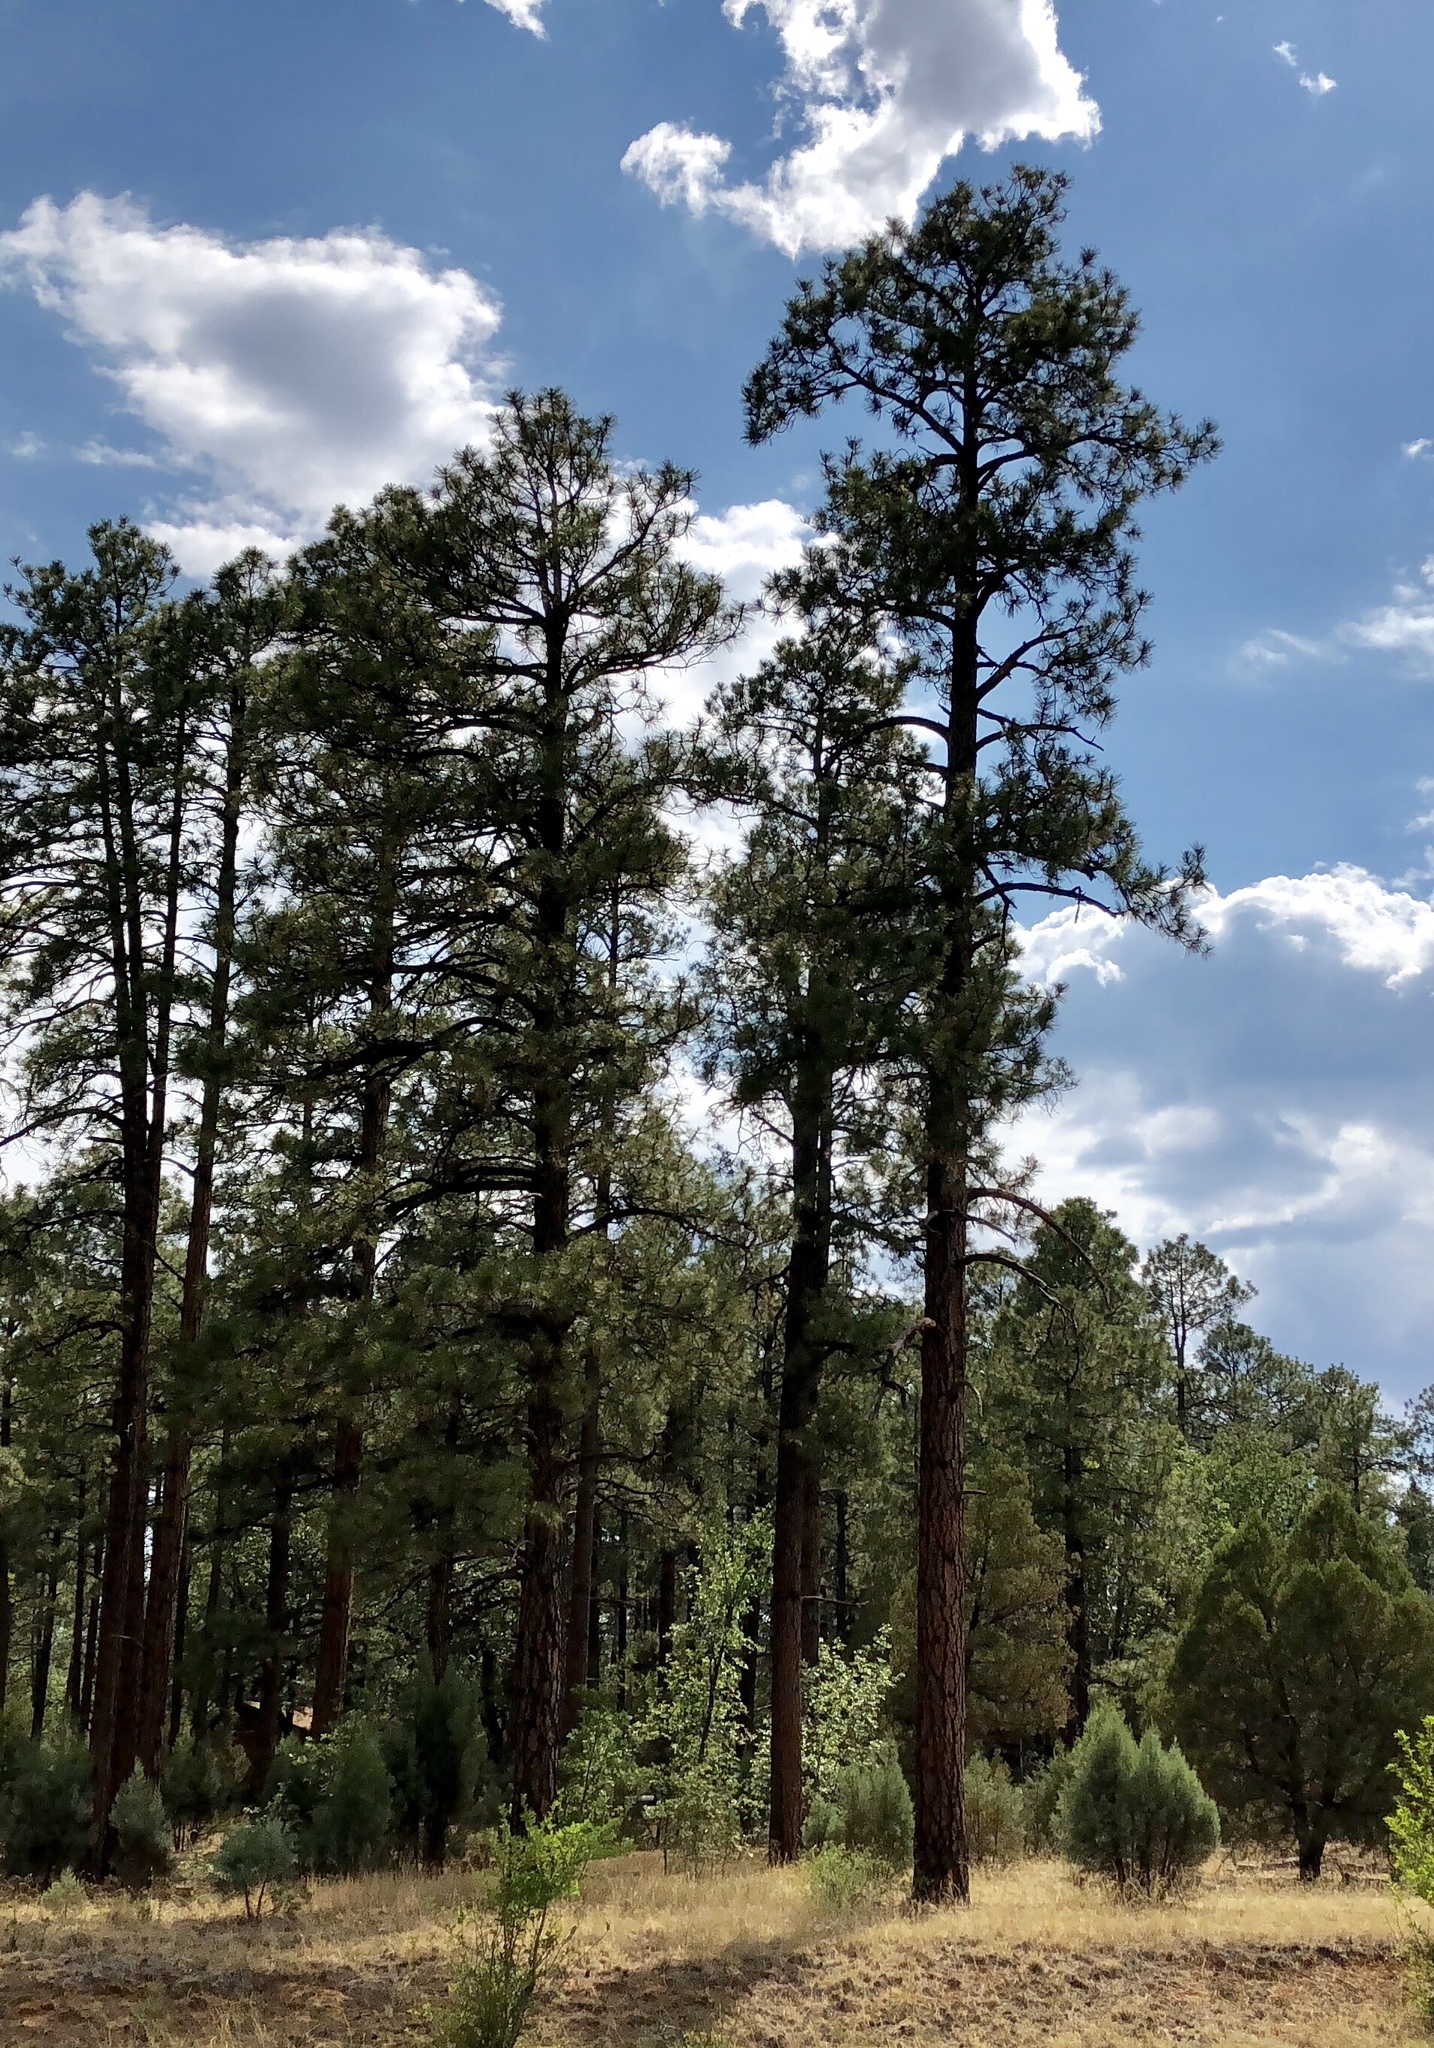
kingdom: Plantae
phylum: Tracheophyta
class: Pinopsida
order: Pinales
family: Pinaceae
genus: Pinus
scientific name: Pinus ponderosa
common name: Western yellow-pine
